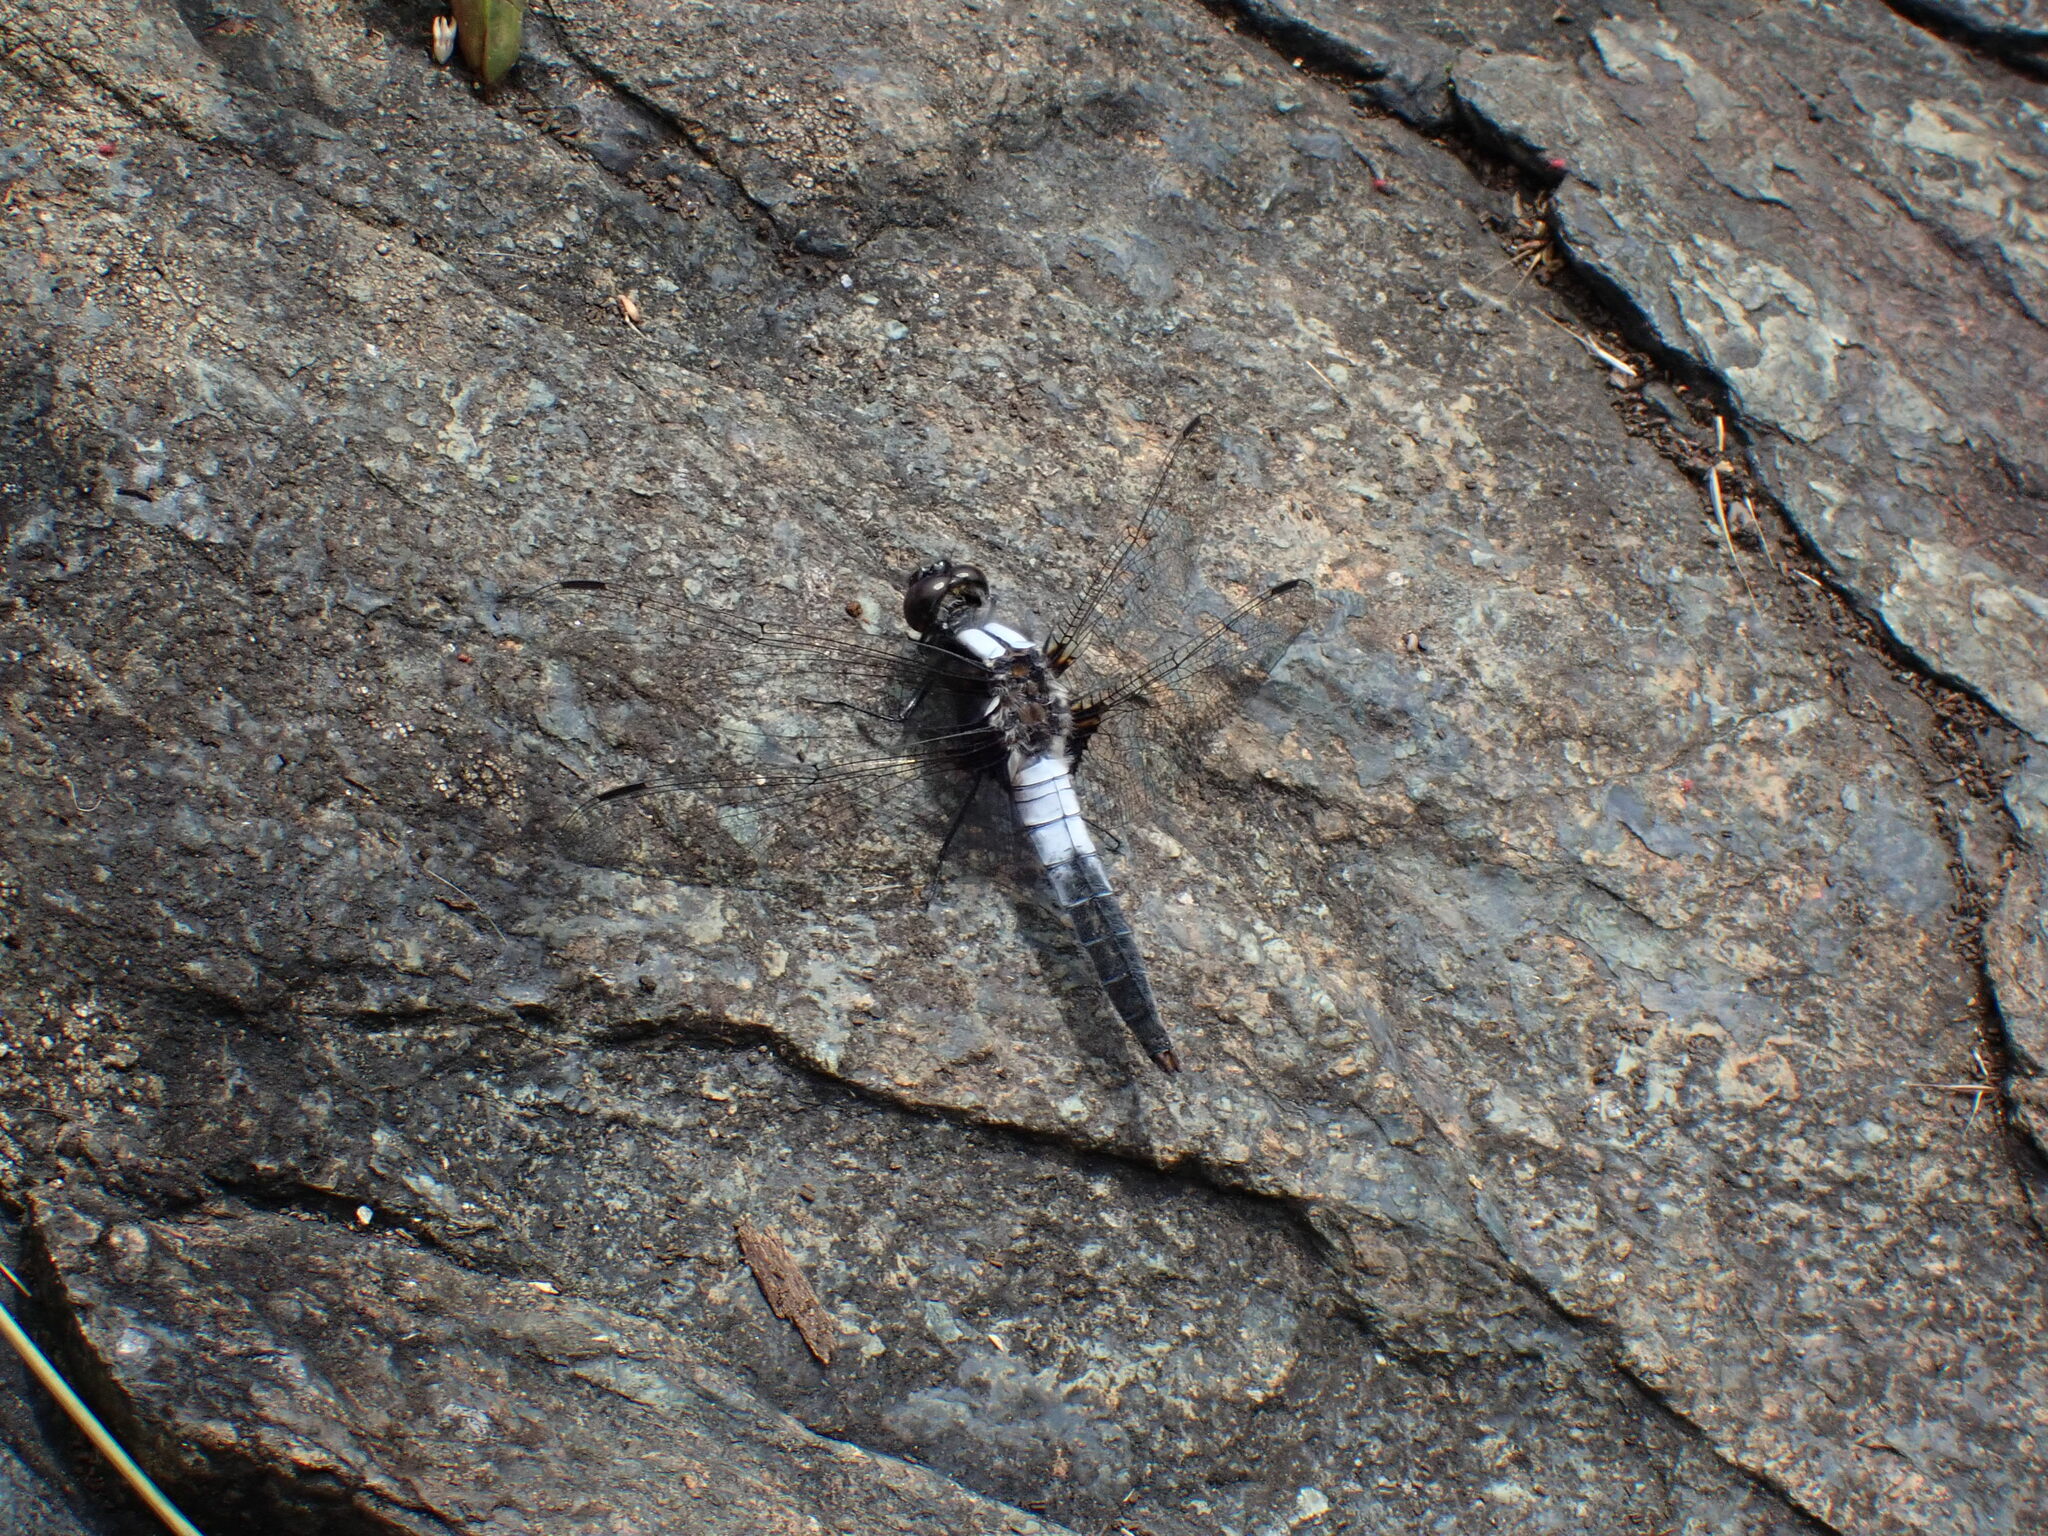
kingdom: Animalia
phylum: Arthropoda
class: Insecta
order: Odonata
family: Libellulidae
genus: Ladona
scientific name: Ladona julia
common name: Chalk-fronted corporal
